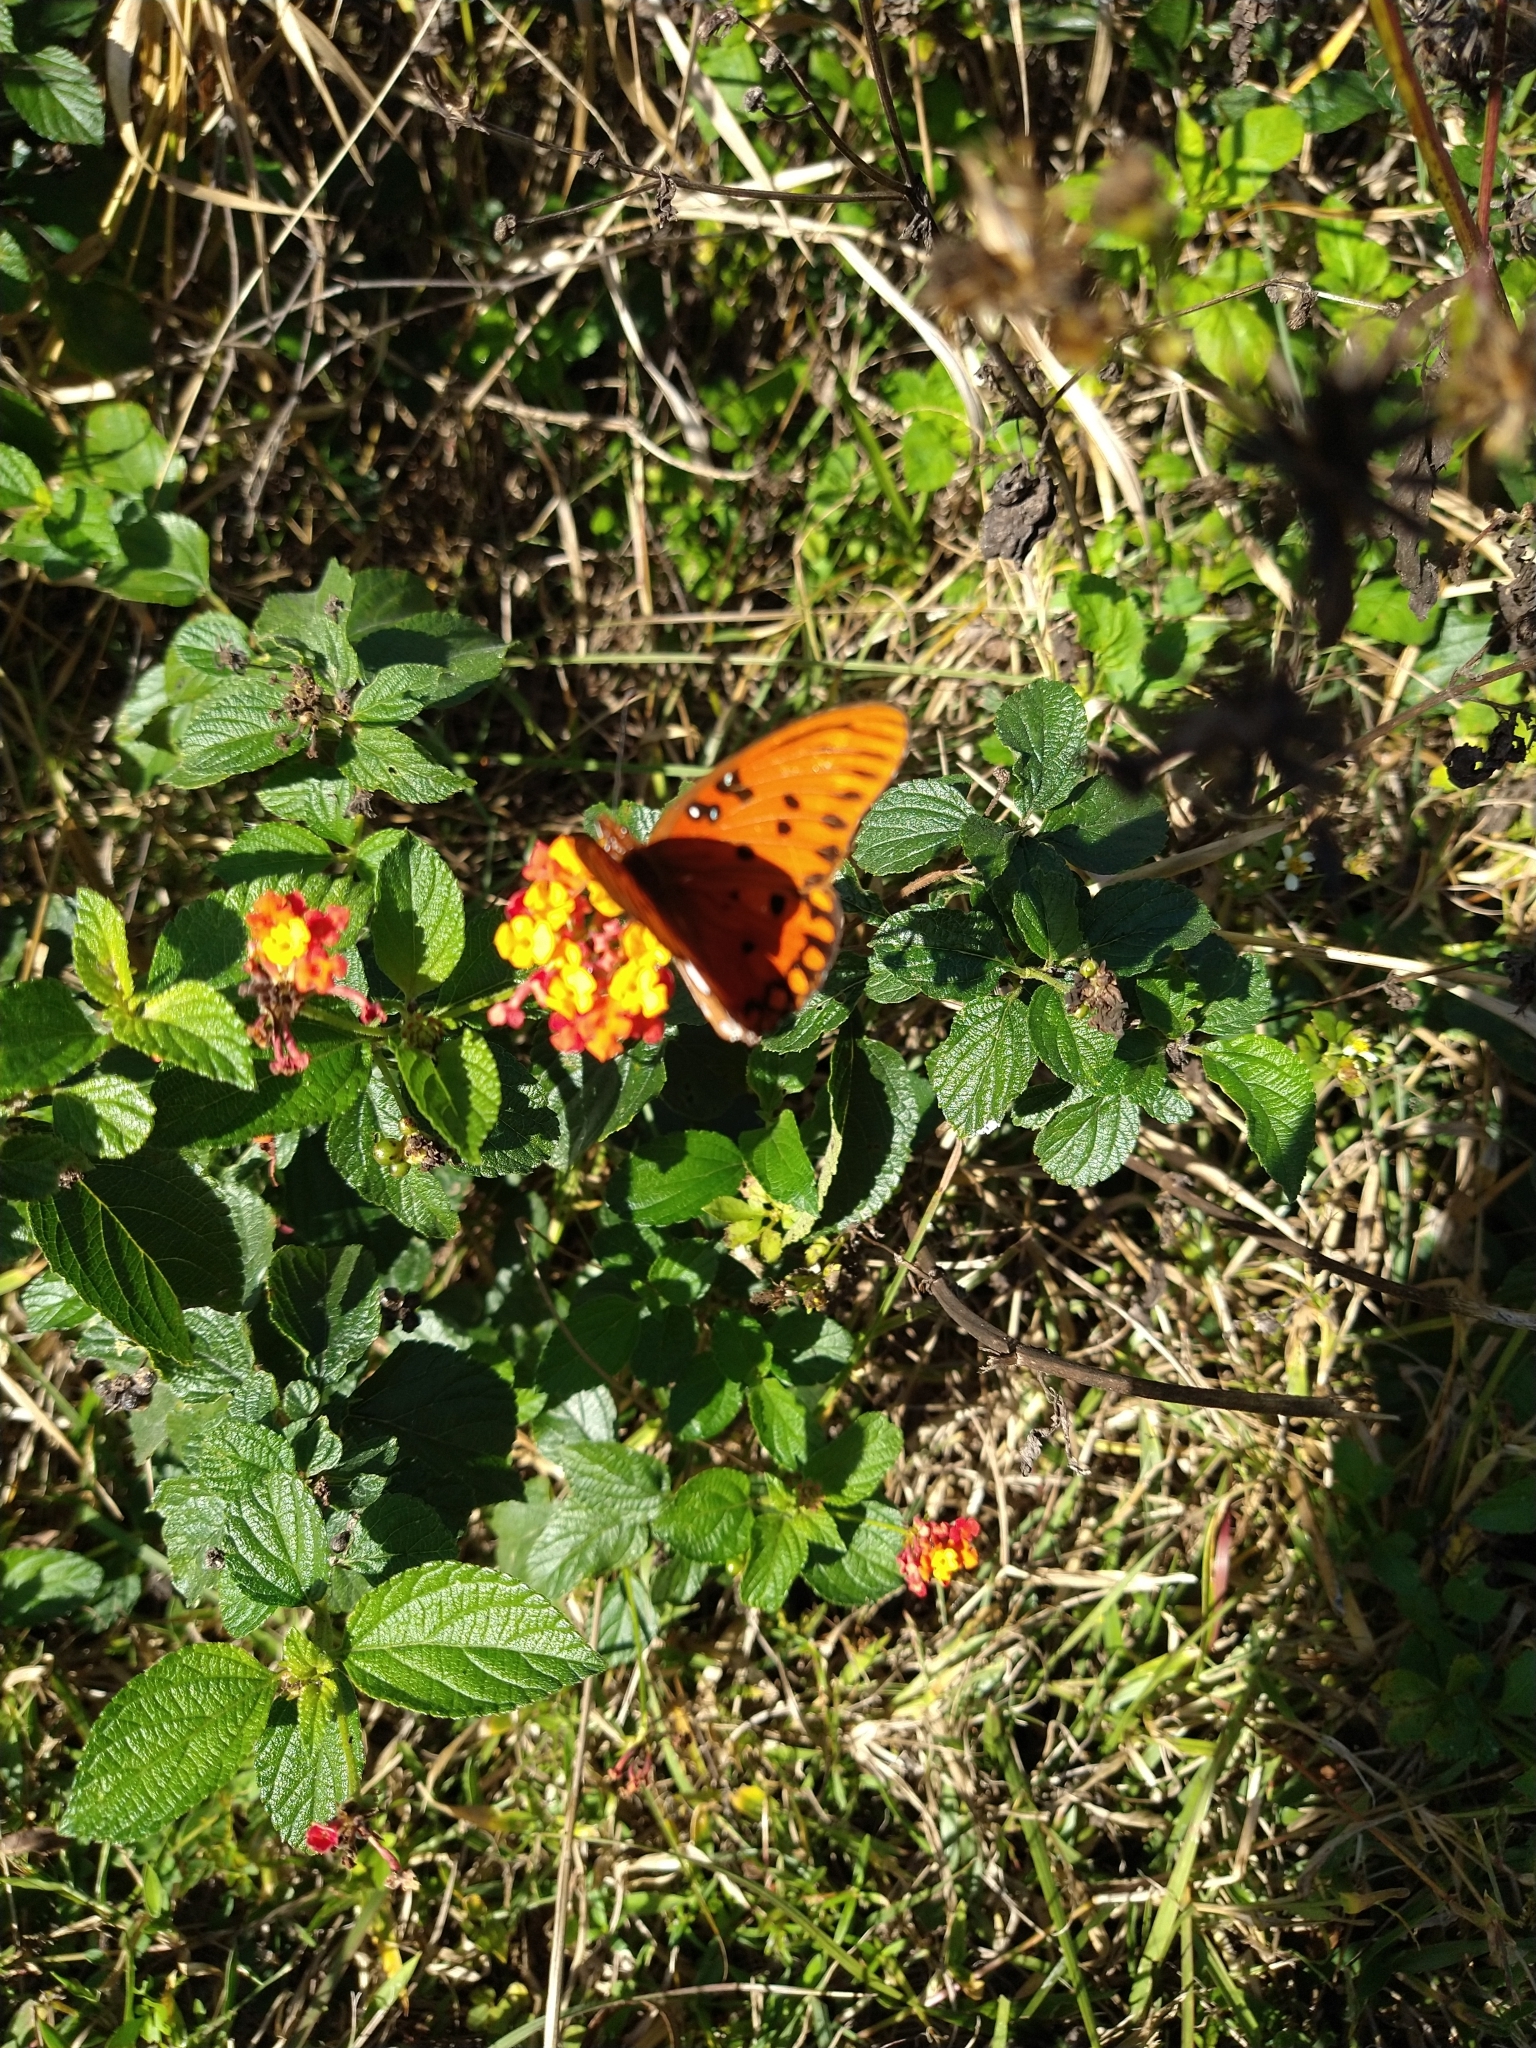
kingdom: Animalia
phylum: Arthropoda
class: Insecta
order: Lepidoptera
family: Nymphalidae
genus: Dione
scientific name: Dione vanillae
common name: Gulf fritillary
